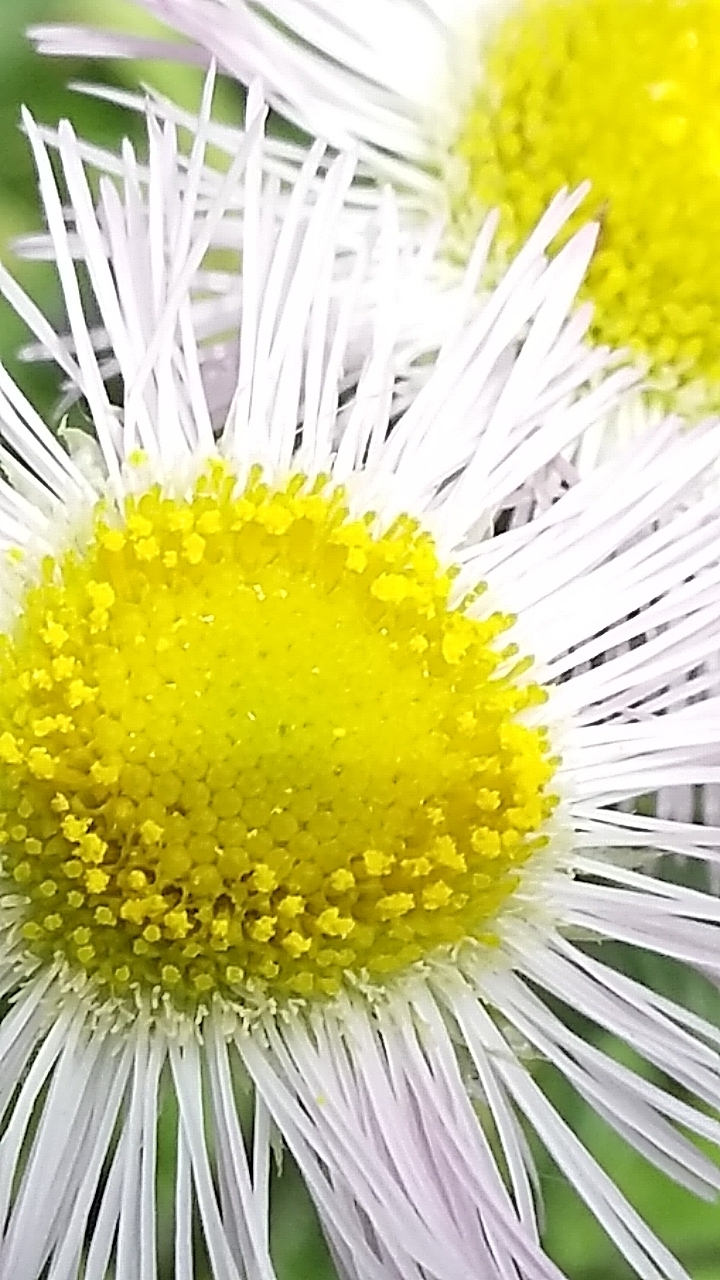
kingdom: Plantae
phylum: Tracheophyta
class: Magnoliopsida
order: Asterales
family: Asteraceae
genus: Erigeron
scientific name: Erigeron philadelphicus
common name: Robin's-plantain
